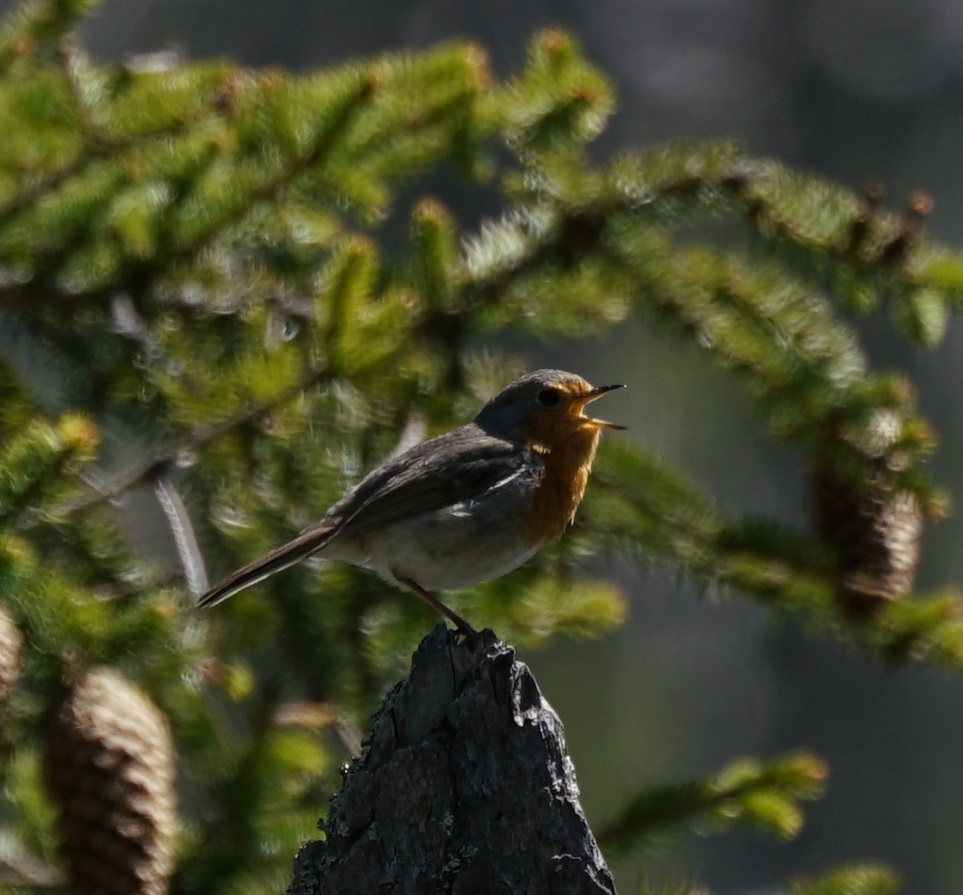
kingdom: Animalia
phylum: Chordata
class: Aves
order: Passeriformes
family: Muscicapidae
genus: Erithacus
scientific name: Erithacus rubecula
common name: European robin
